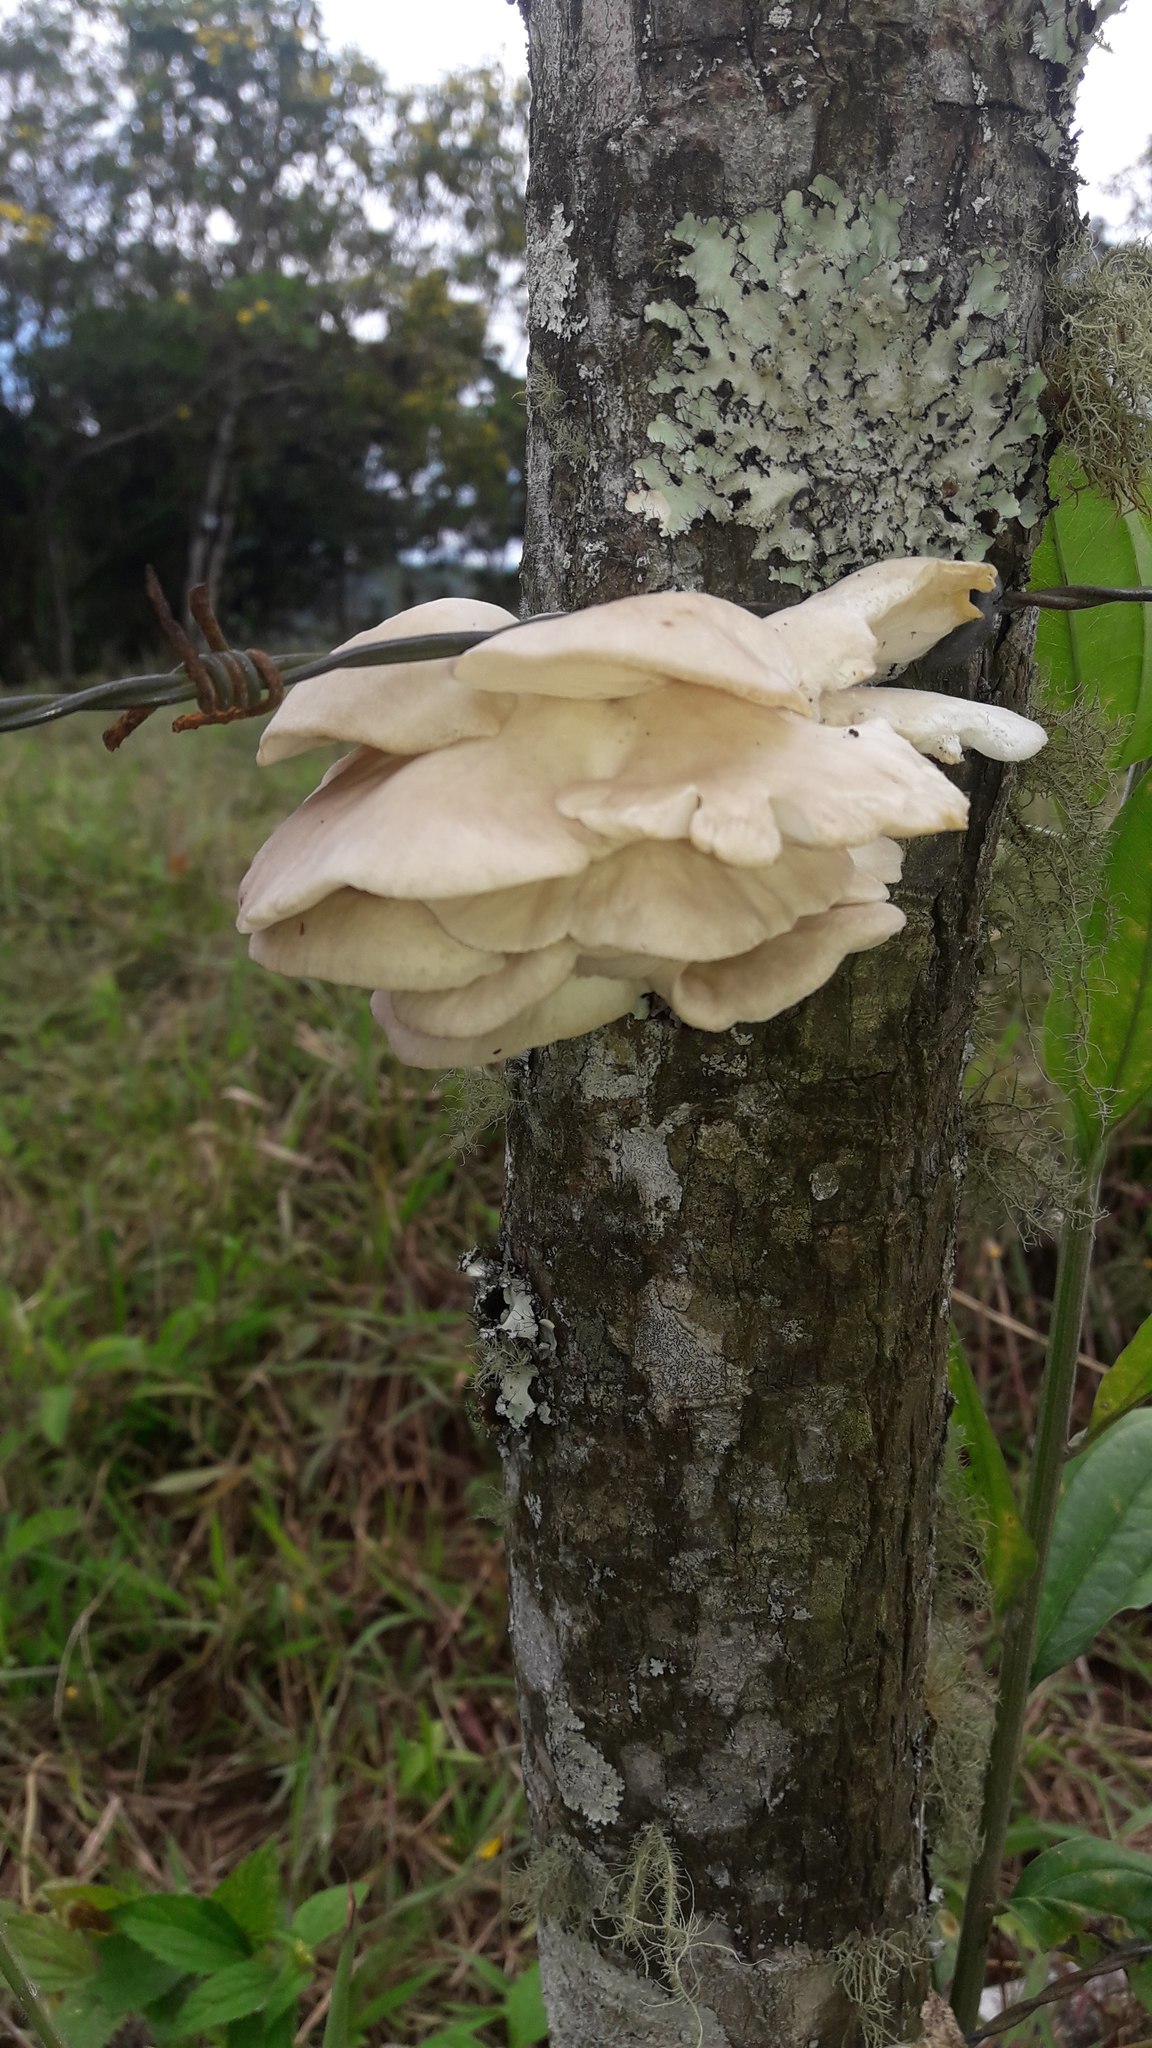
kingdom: Fungi
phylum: Basidiomycota
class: Agaricomycetes
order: Agaricales
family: Pleurotaceae
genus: Pleurotus
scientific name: Pleurotus pulmonarius
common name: Pale oyster
